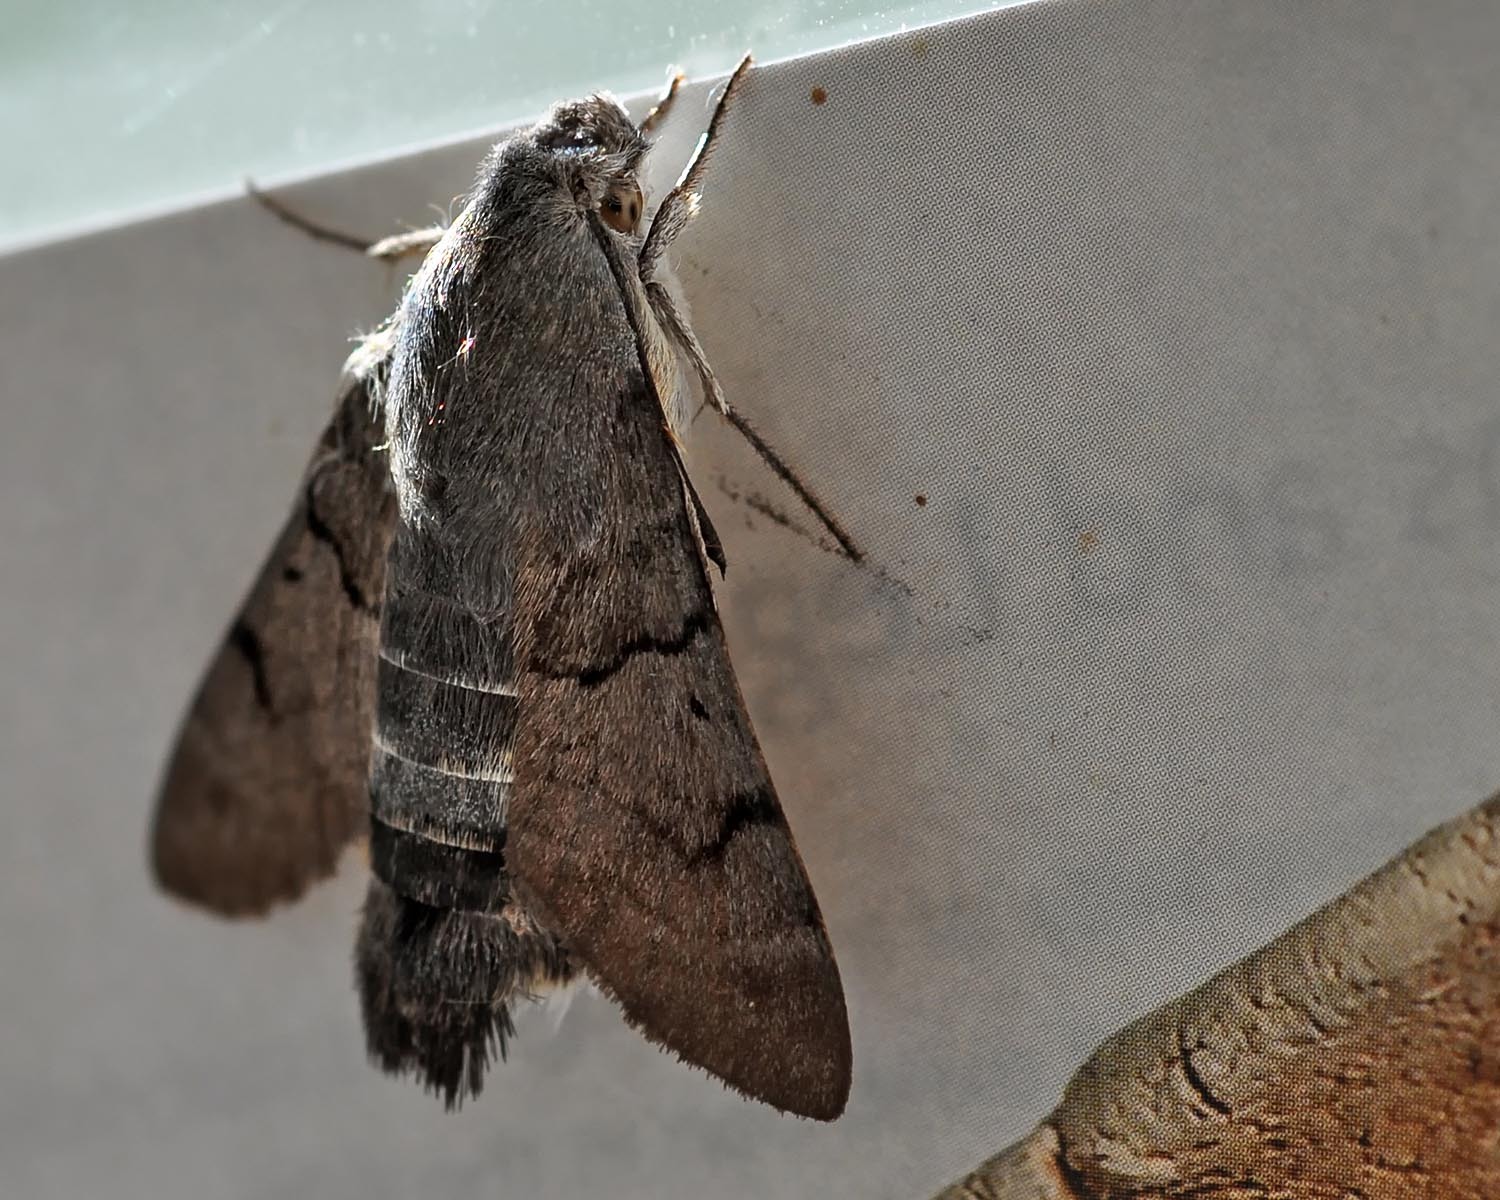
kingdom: Animalia
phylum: Arthropoda
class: Insecta
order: Lepidoptera
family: Sphingidae
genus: Macroglossum
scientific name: Macroglossum stellatarum
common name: Humming-bird hawk-moth
